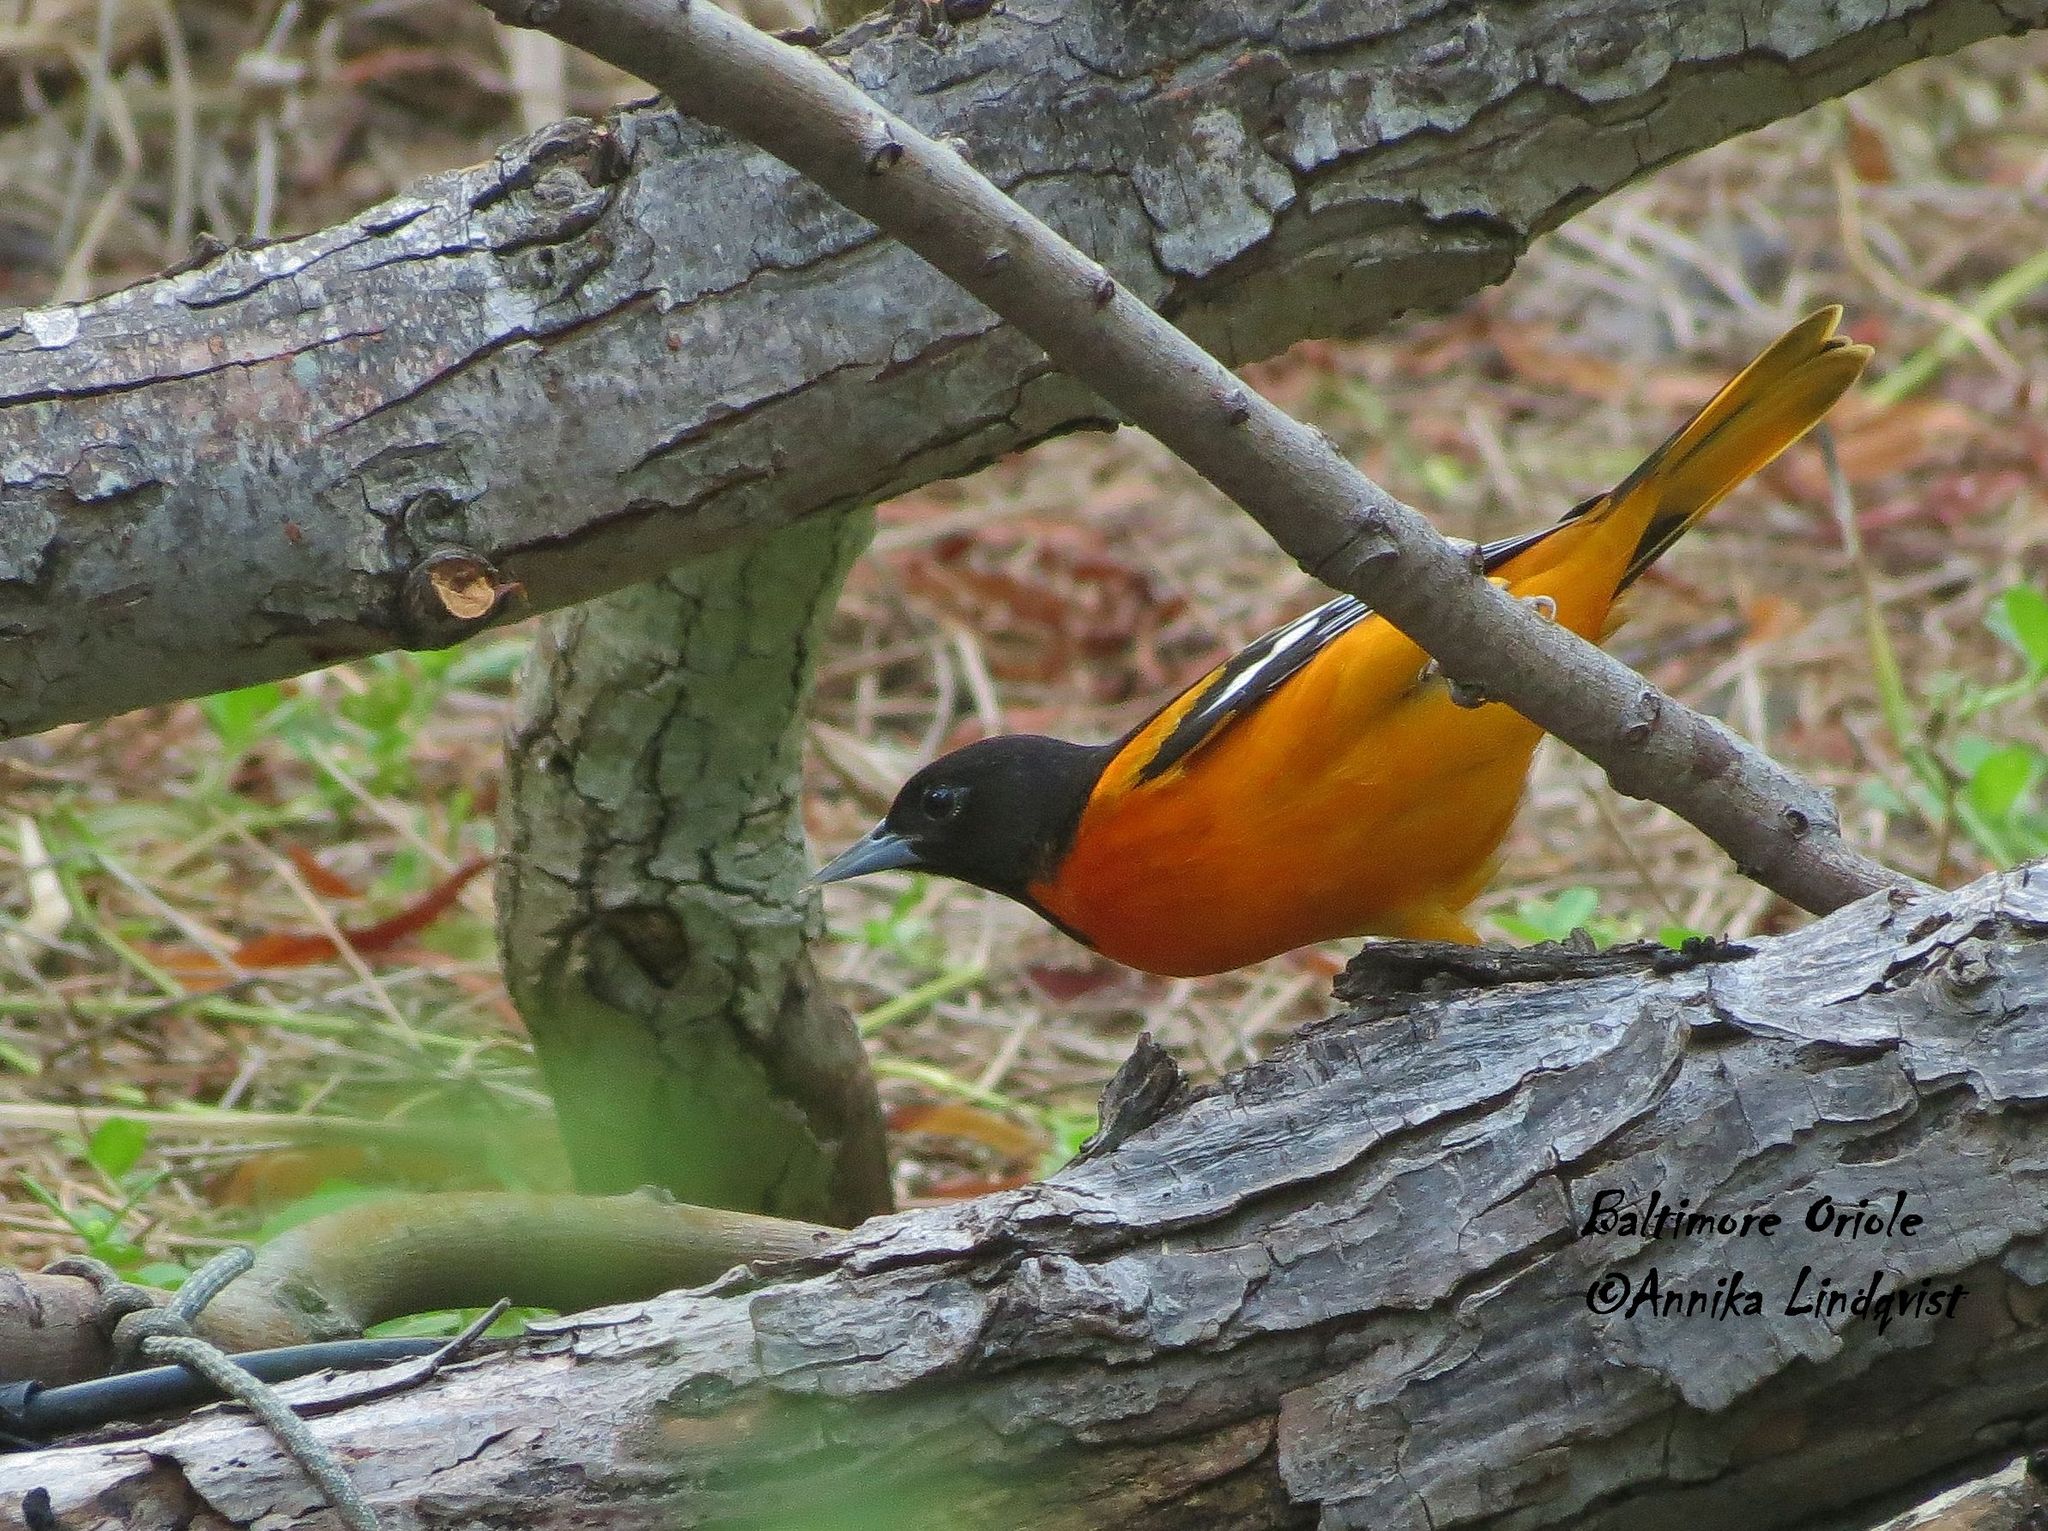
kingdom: Animalia
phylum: Chordata
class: Aves
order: Passeriformes
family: Icteridae
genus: Icterus
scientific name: Icterus galbula
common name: Baltimore oriole
